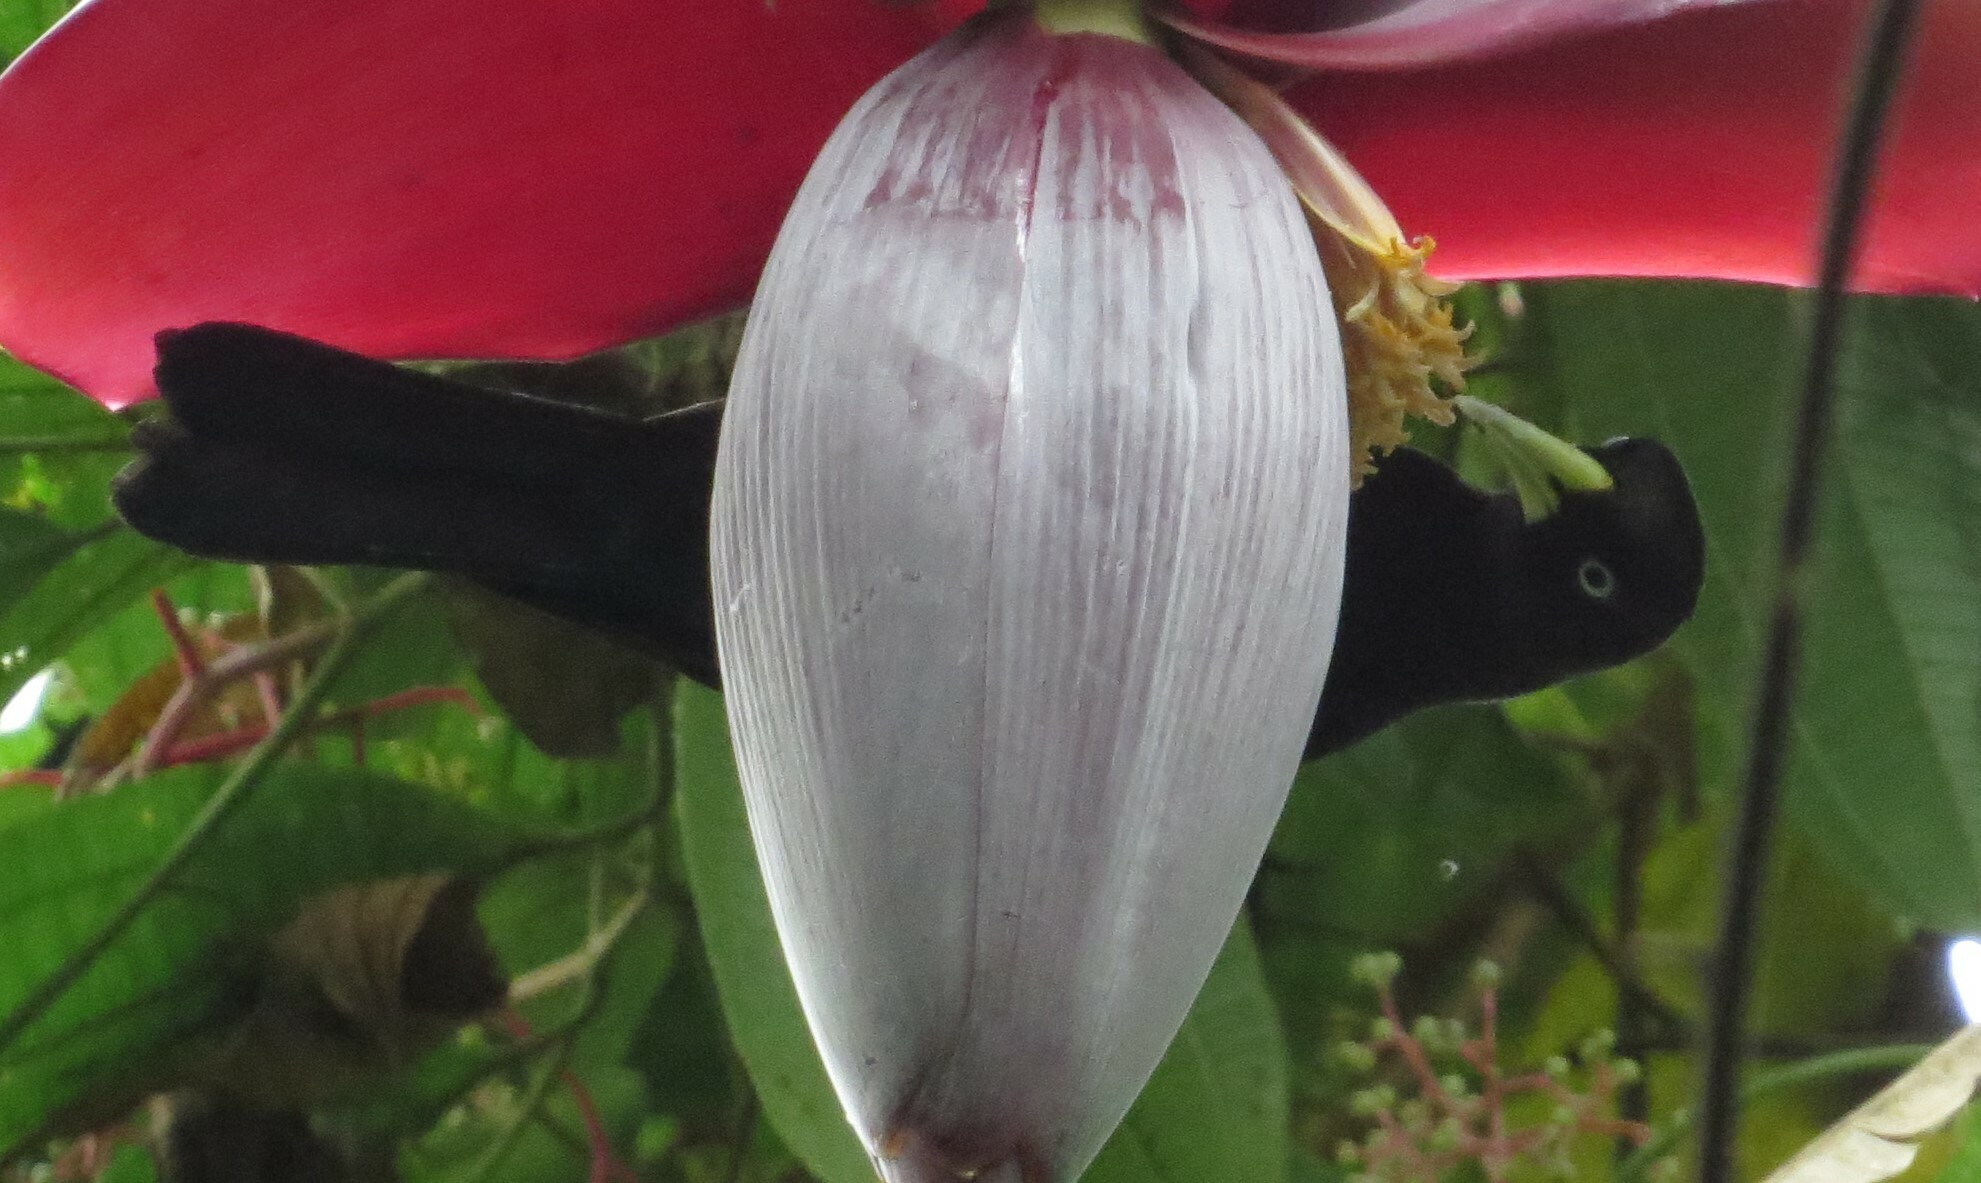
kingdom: Animalia
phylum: Chordata
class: Aves
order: Passeriformes
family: Icteridae
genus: Cacicus
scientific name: Cacicus uropygialis
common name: Scarlet-rumped cacique
